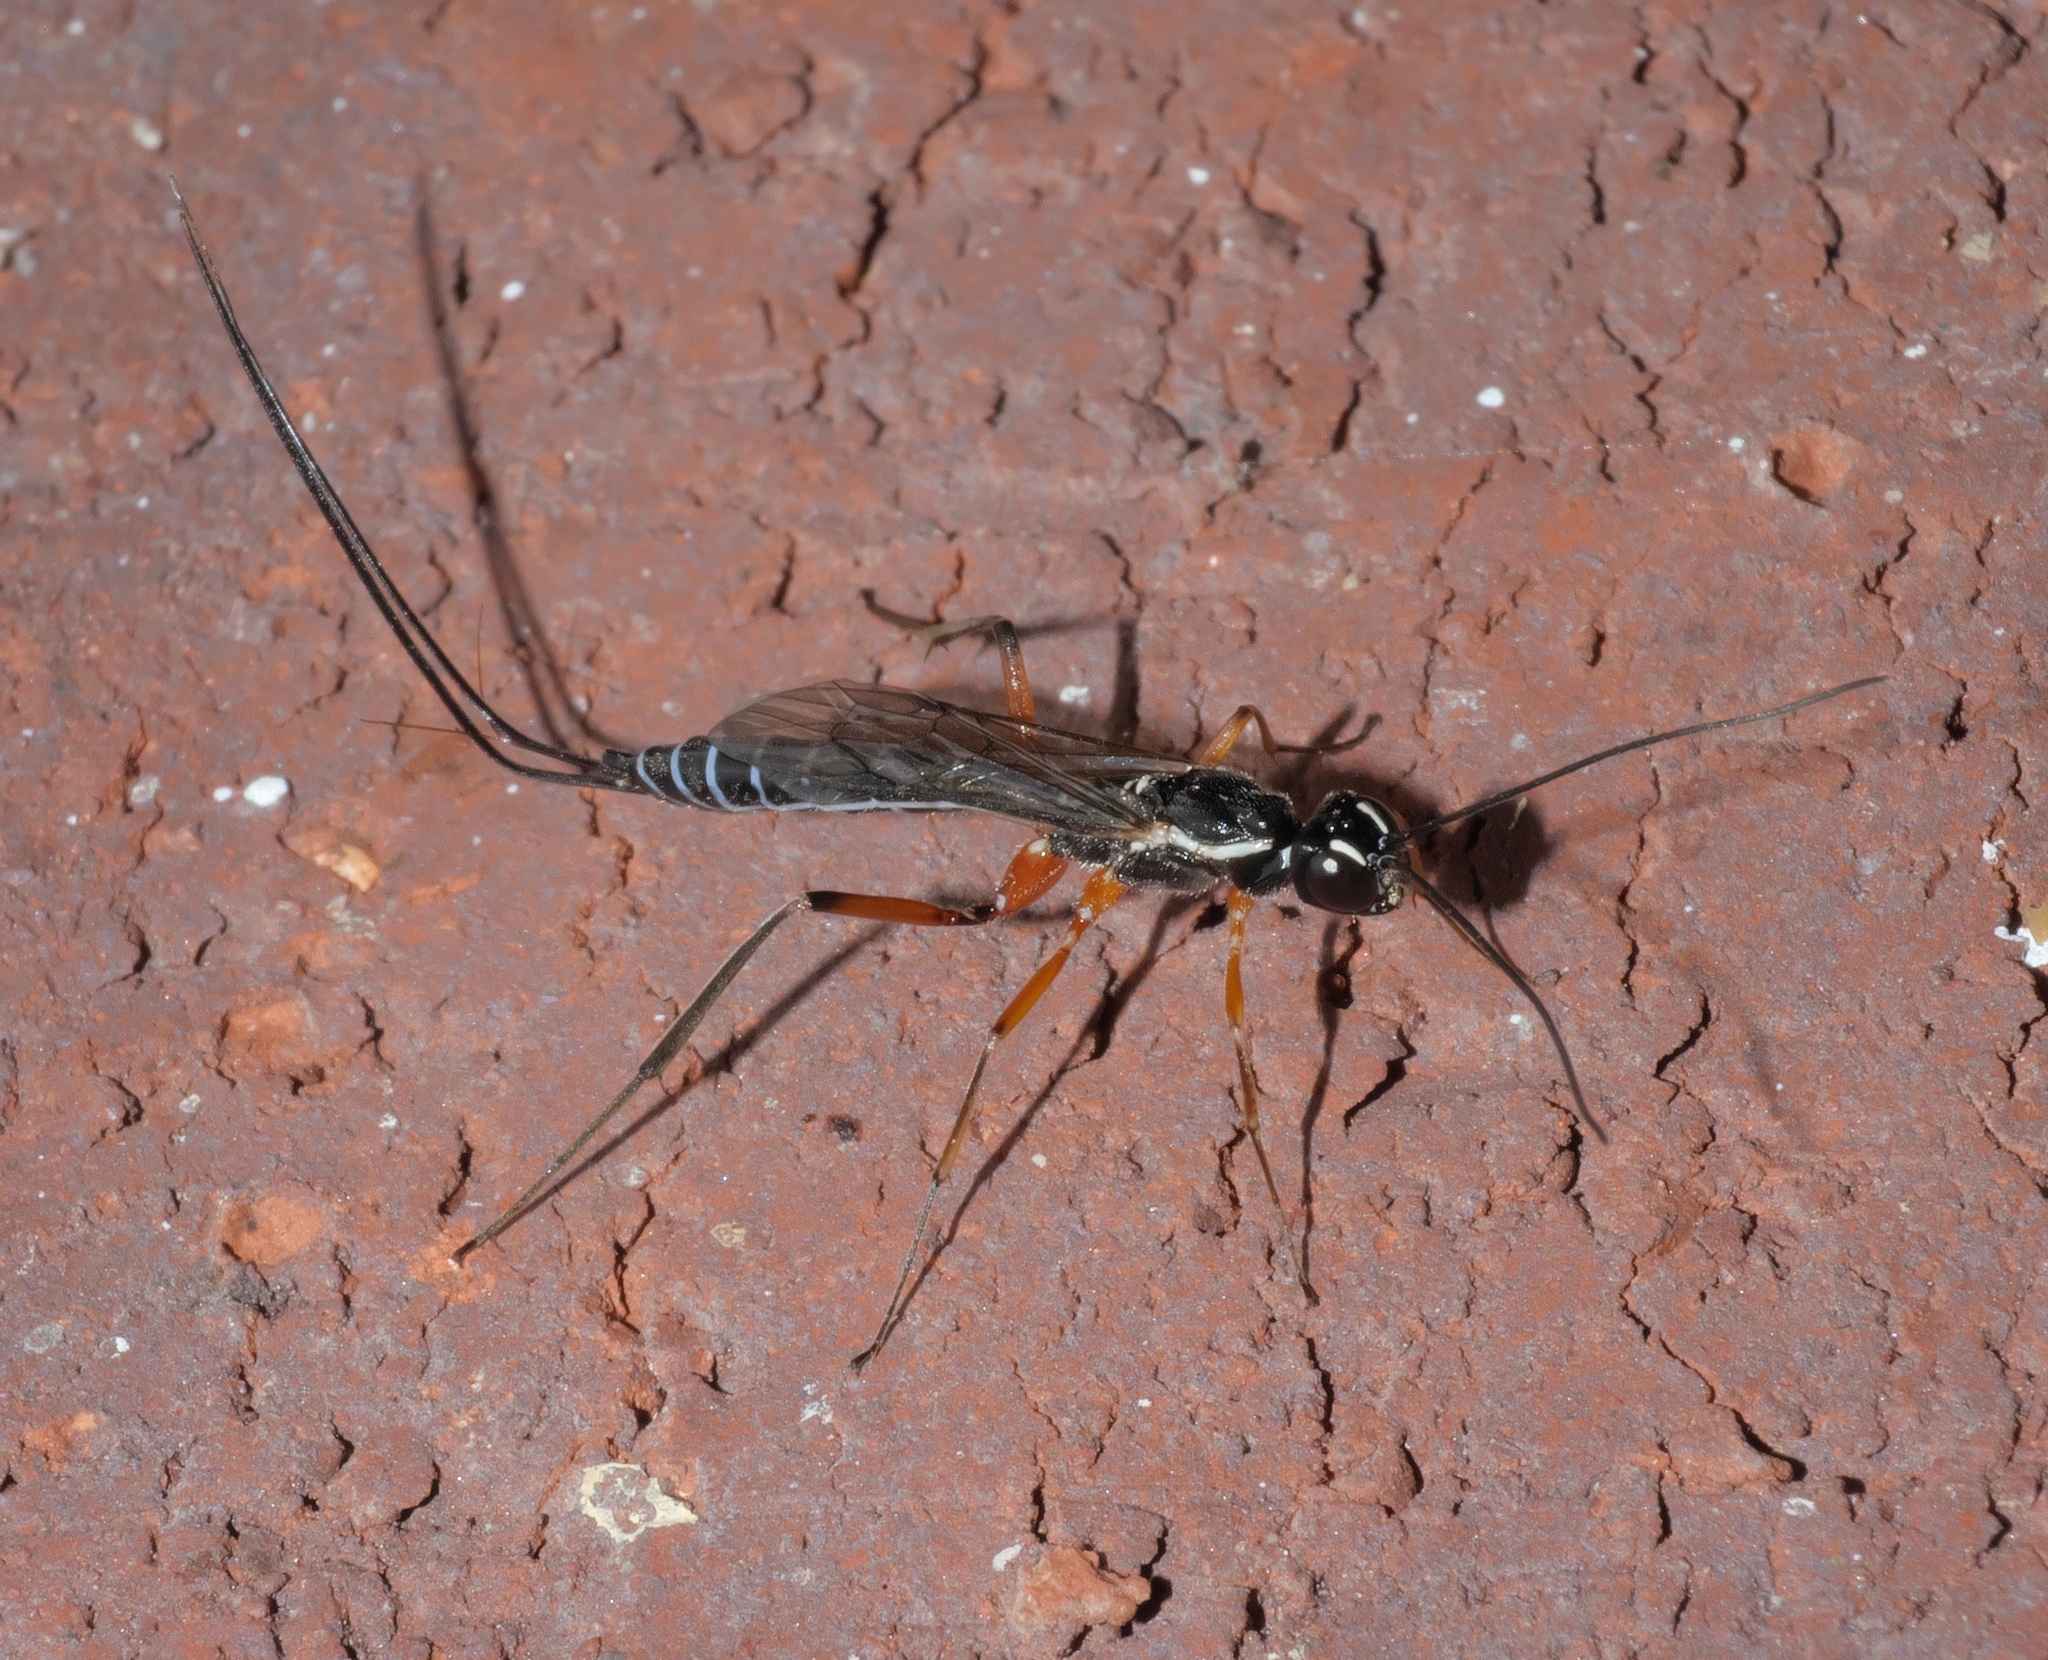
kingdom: Animalia
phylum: Arthropoda
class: Insecta
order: Hymenoptera
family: Ichneumonidae
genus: Podoschistus
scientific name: Podoschistus vittifrons
